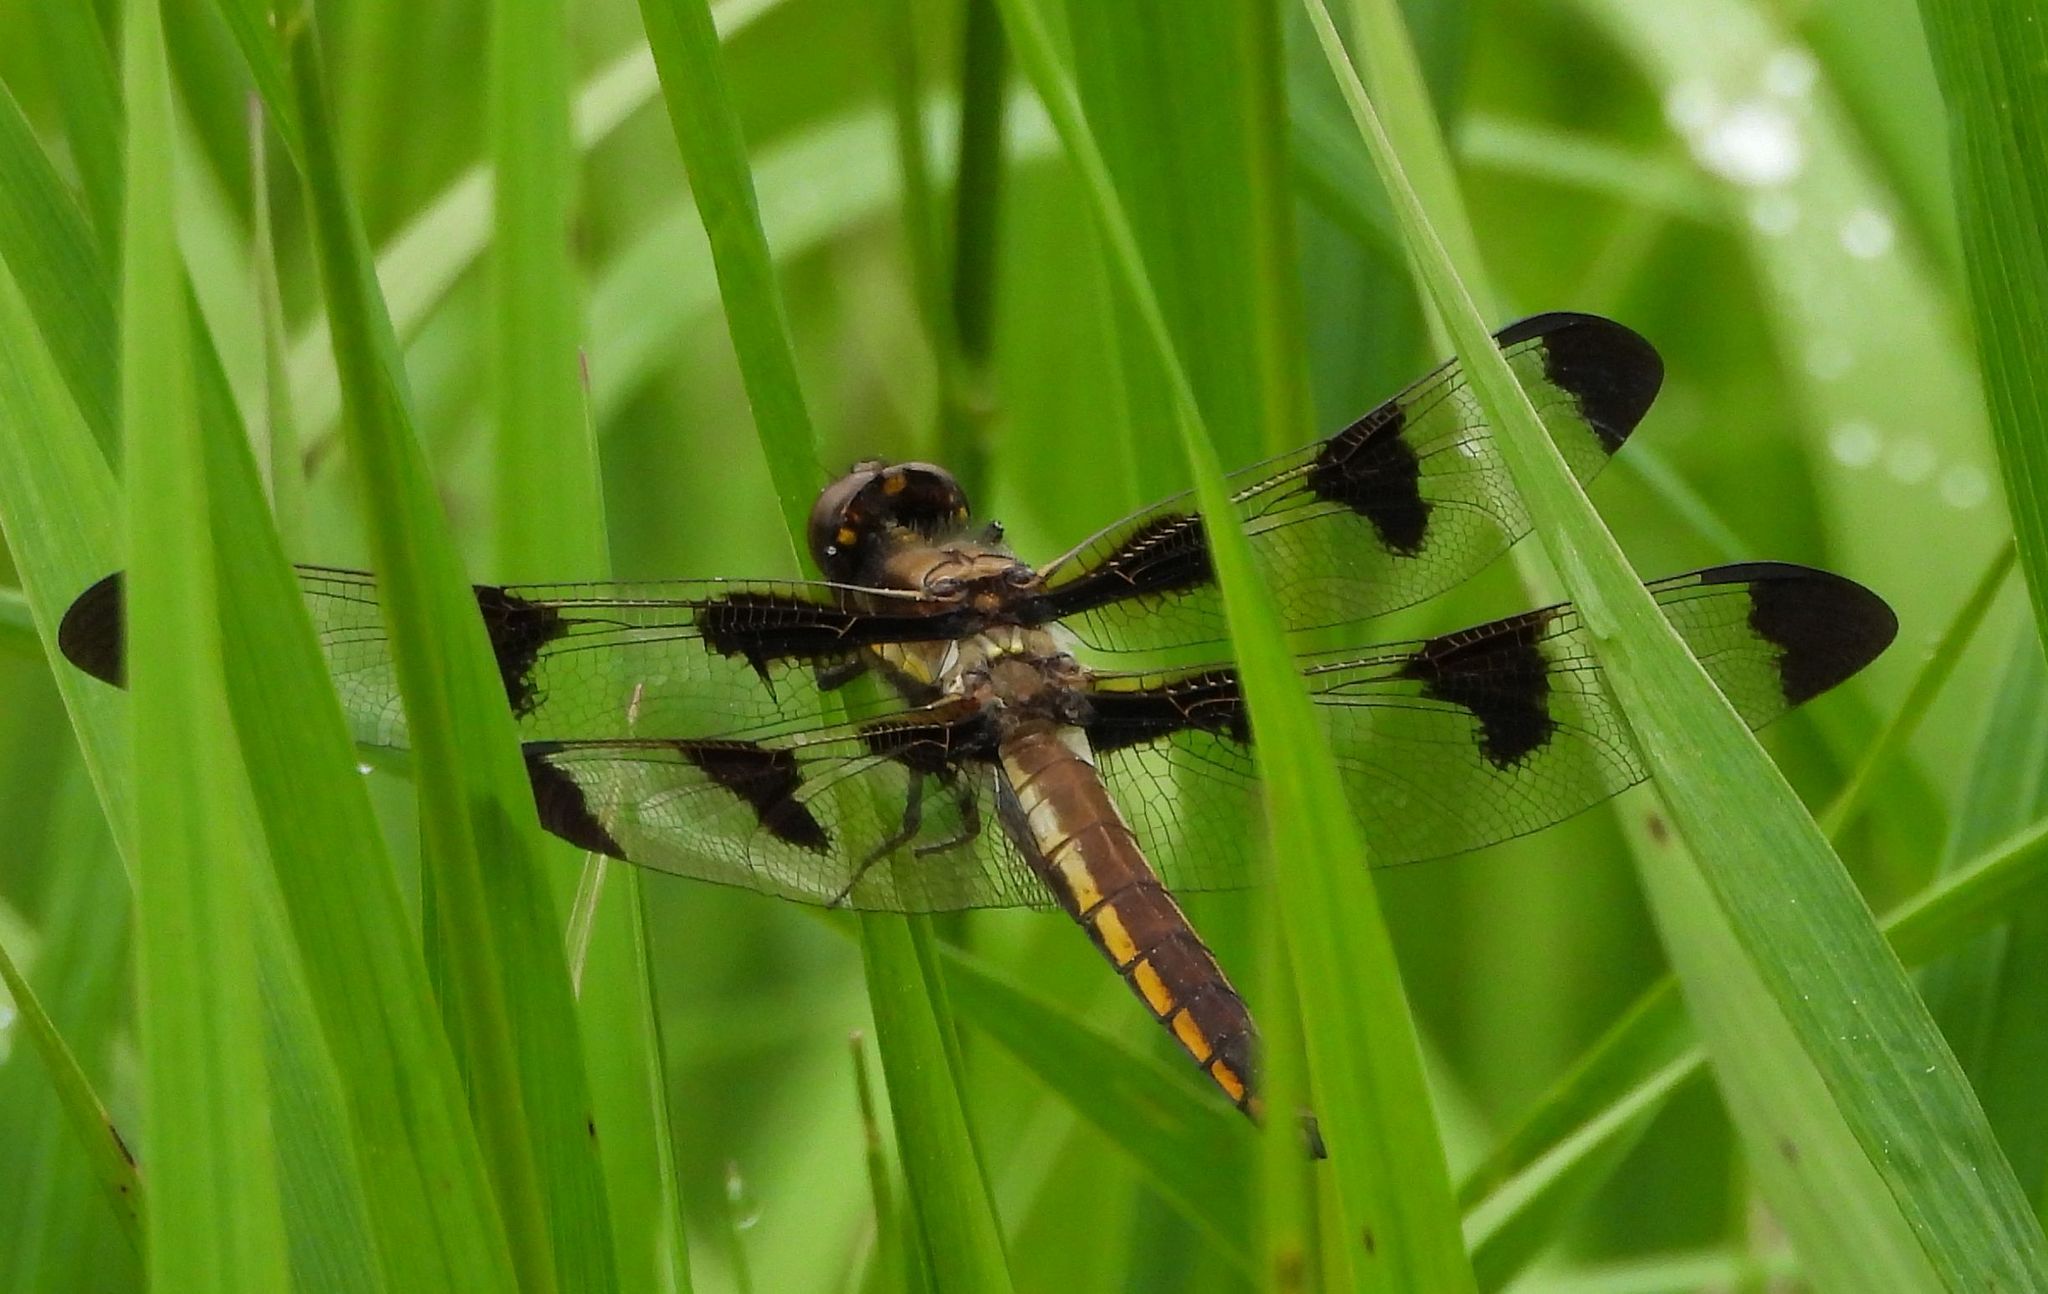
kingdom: Animalia
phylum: Arthropoda
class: Insecta
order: Odonata
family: Libellulidae
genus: Libellula
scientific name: Libellula pulchella
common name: Twelve-spotted skimmer
